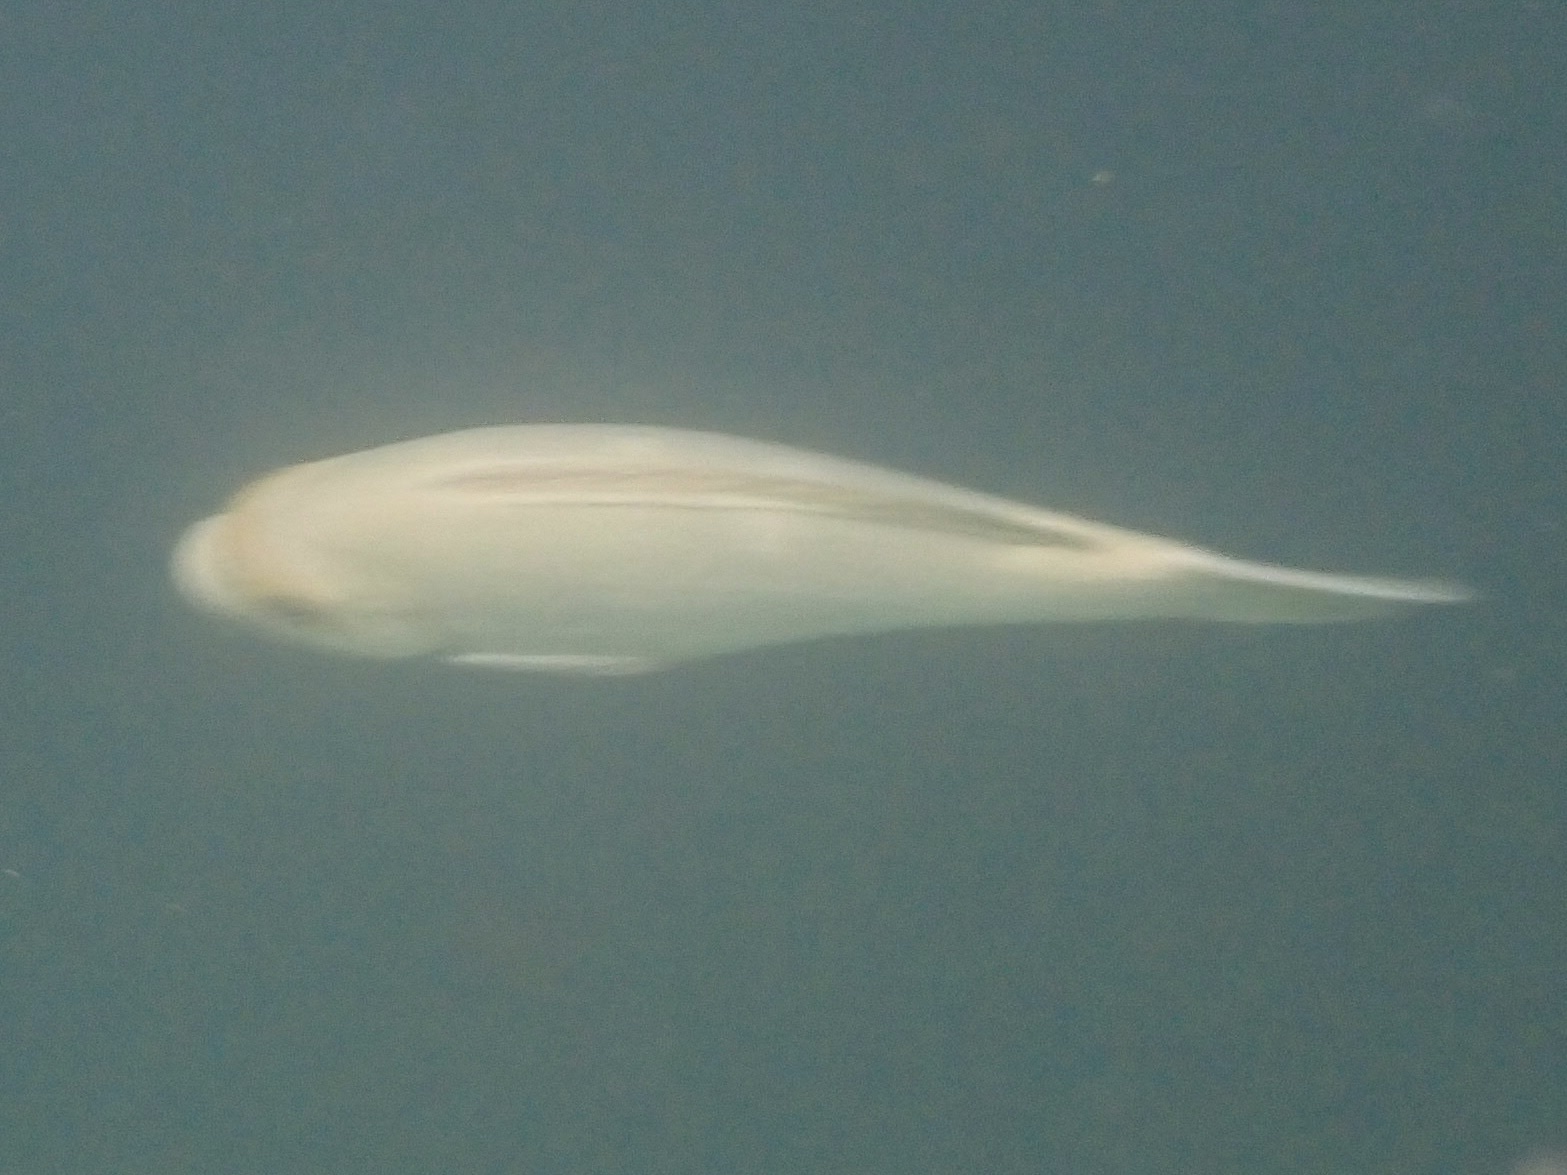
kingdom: Animalia
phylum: Chordata
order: Perciformes
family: Kyphosidae
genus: Girella
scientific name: Girella nigricans
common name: Opaleye
